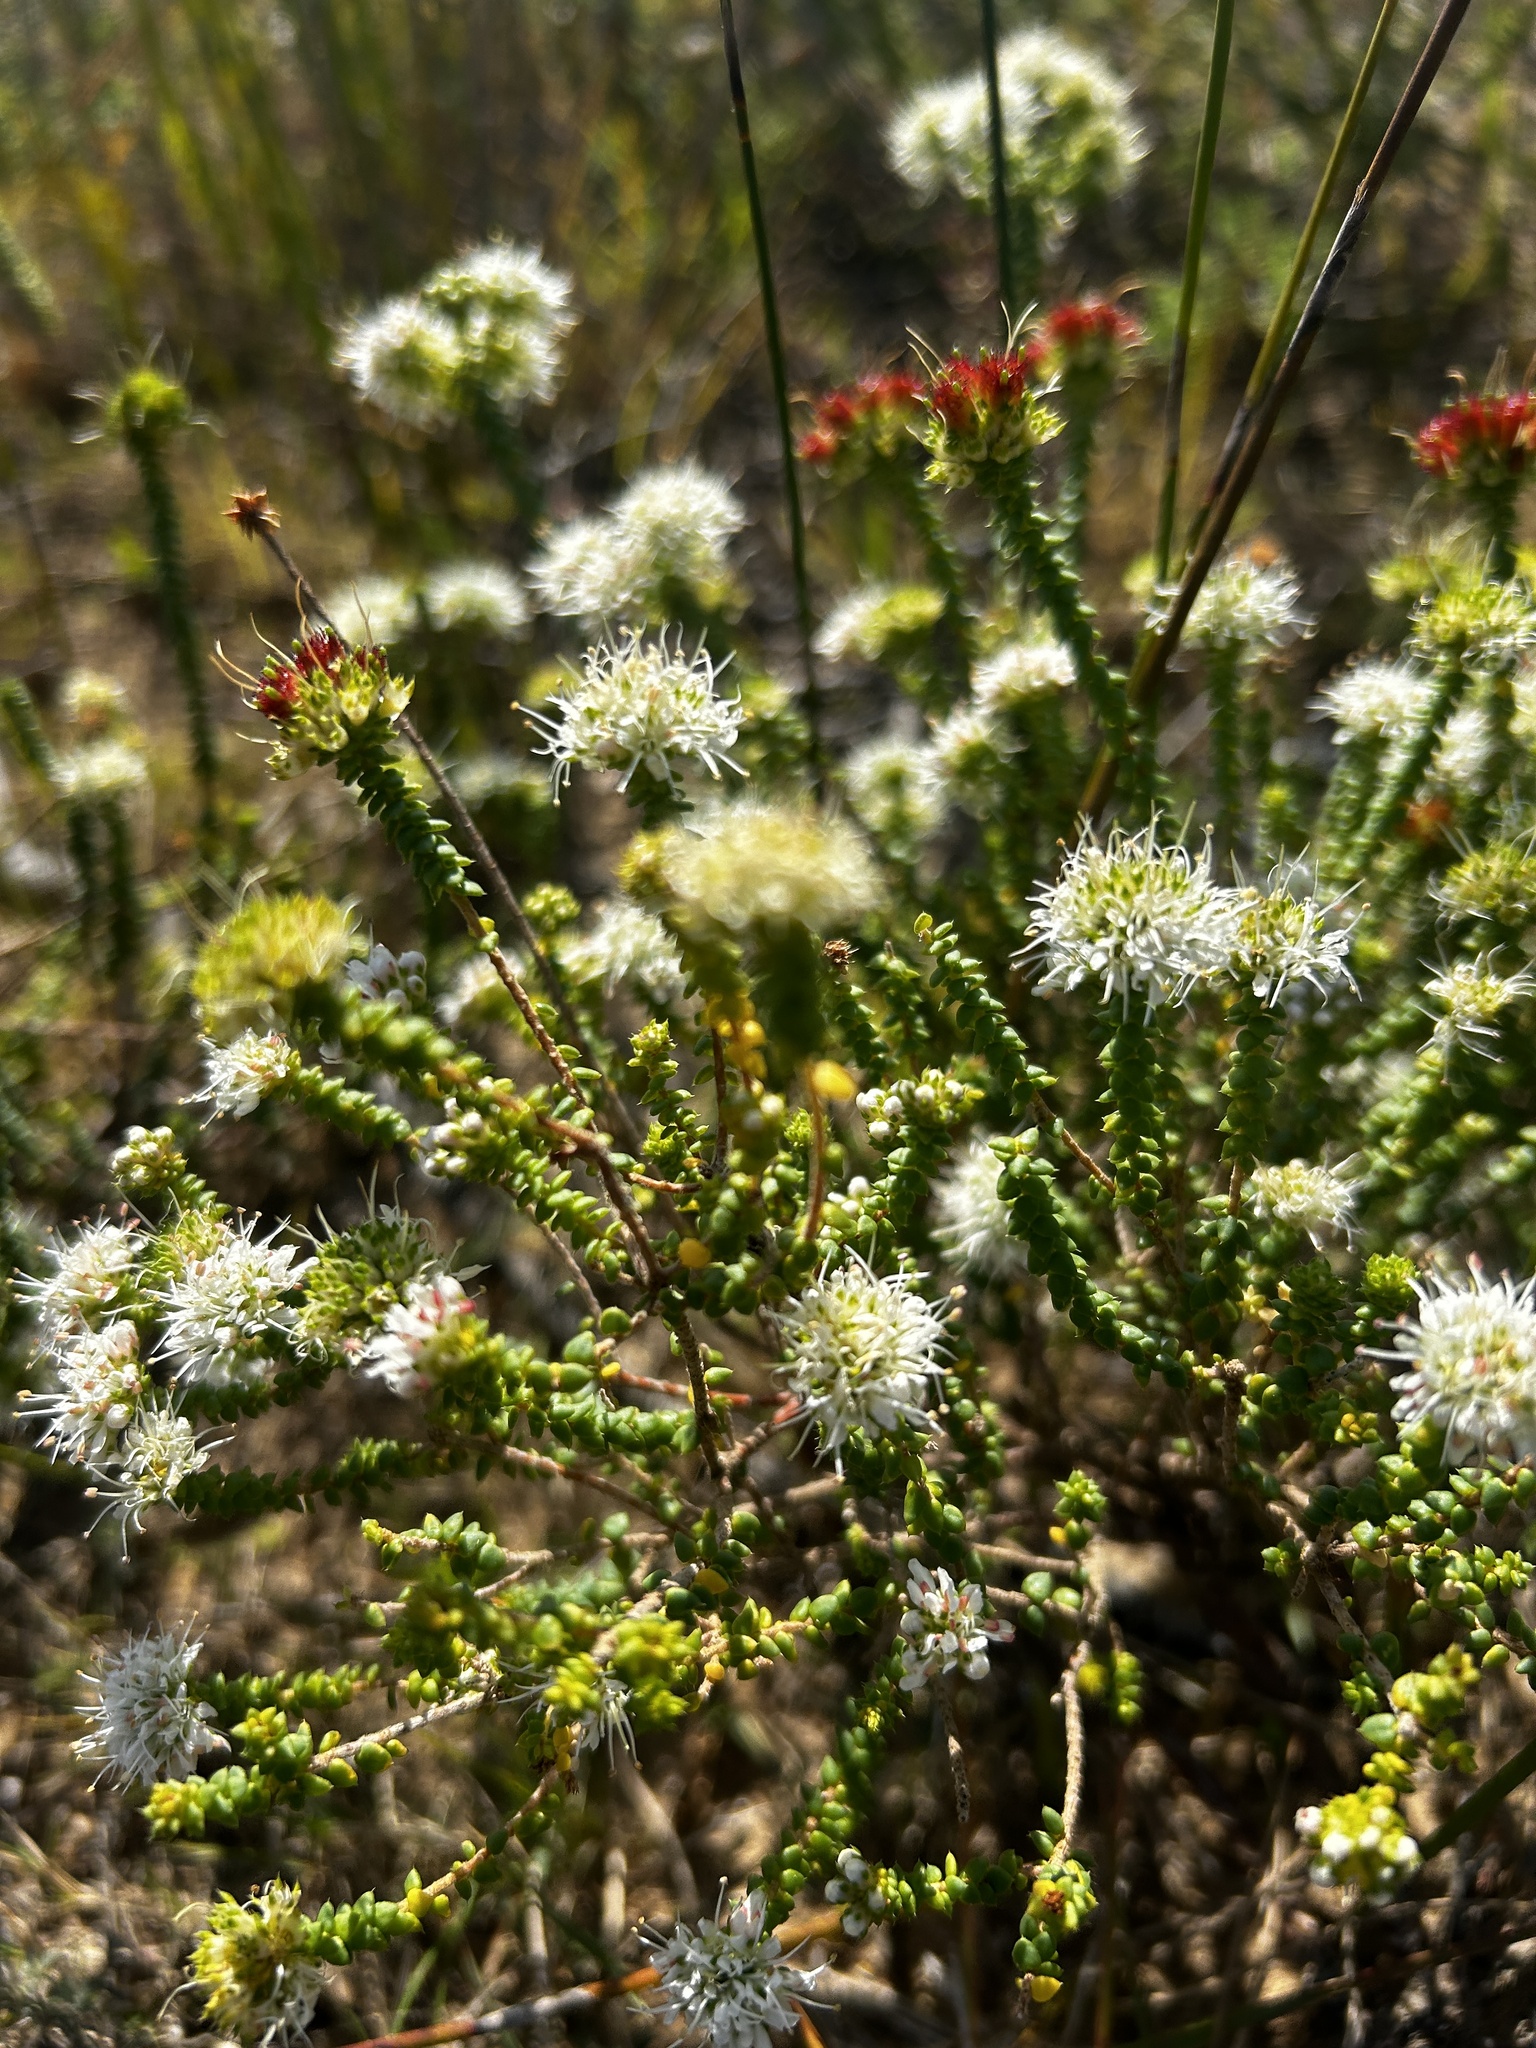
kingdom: Plantae
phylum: Tracheophyta
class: Magnoliopsida
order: Sapindales
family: Rutaceae
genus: Agathosma
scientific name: Agathosma apiculata
